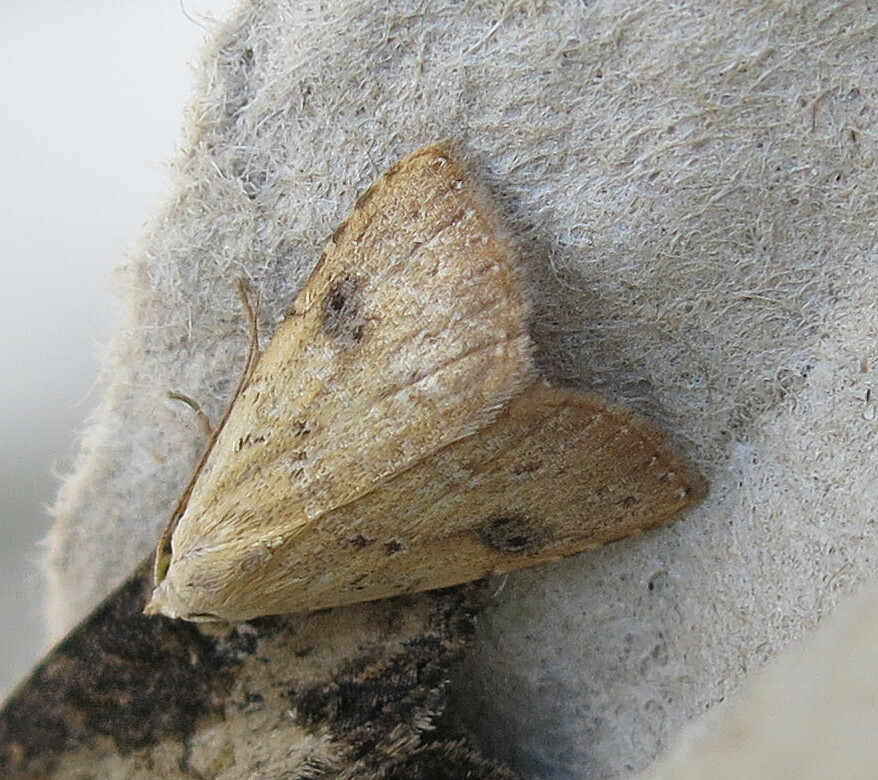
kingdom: Animalia
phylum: Arthropoda
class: Insecta
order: Lepidoptera
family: Erebidae
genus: Rivula
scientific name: Rivula sericealis
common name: Straw dot
